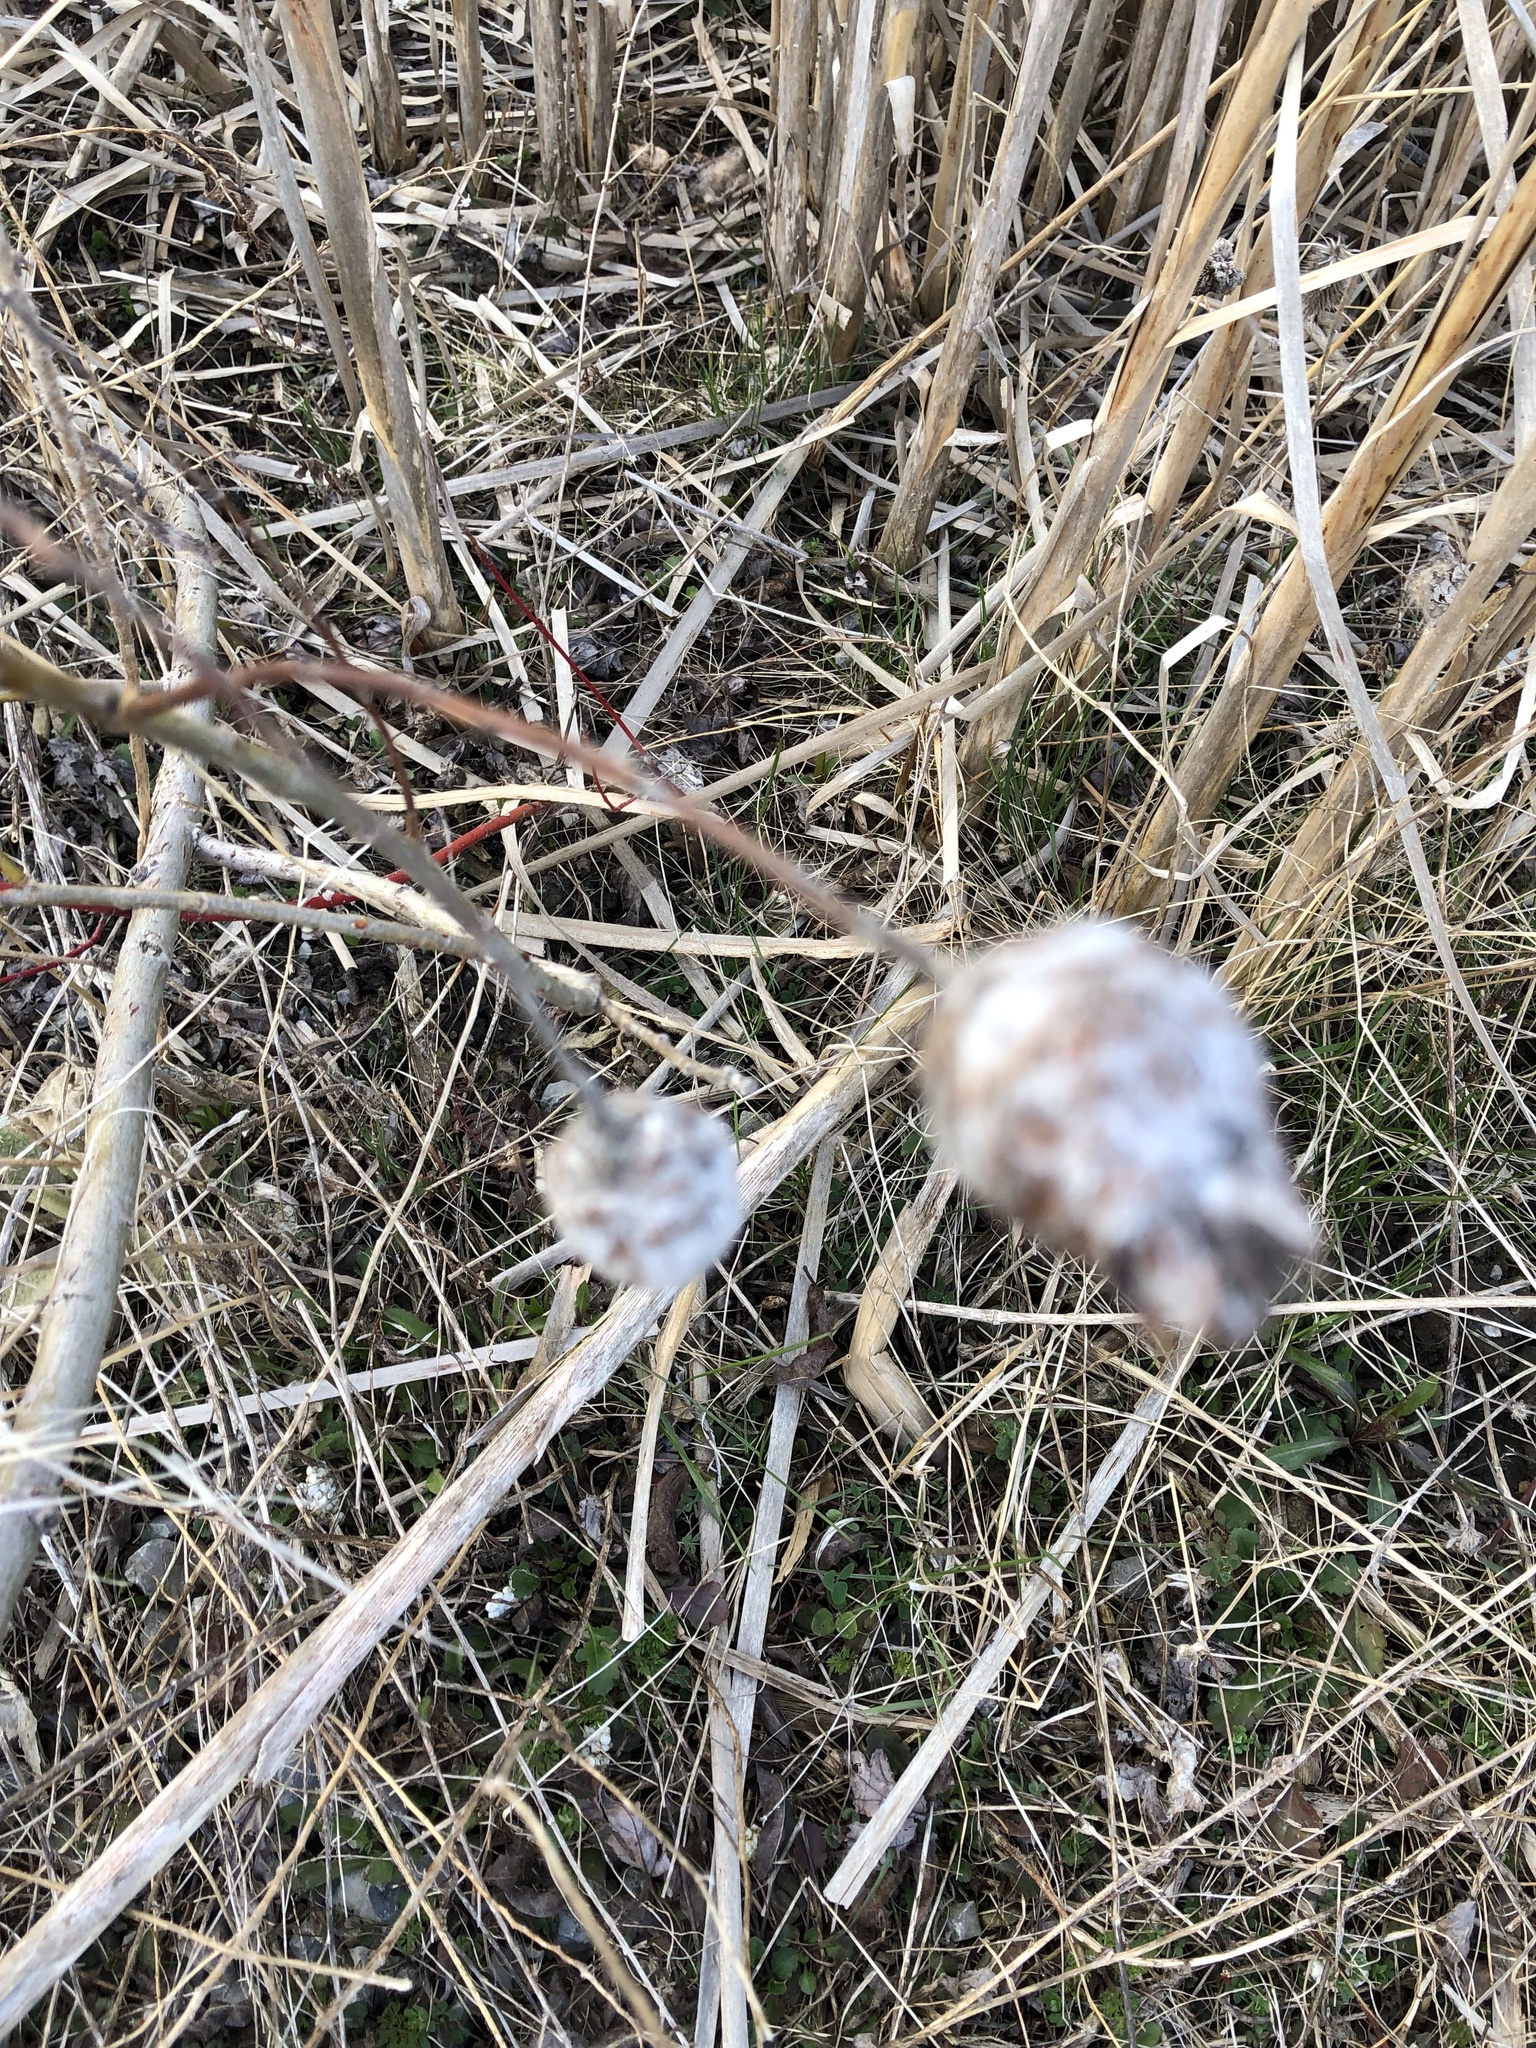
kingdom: Animalia
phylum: Arthropoda
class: Insecta
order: Diptera
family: Cecidomyiidae
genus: Rabdophaga
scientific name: Rabdophaga strobiloides
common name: Willow pinecone gall midge
